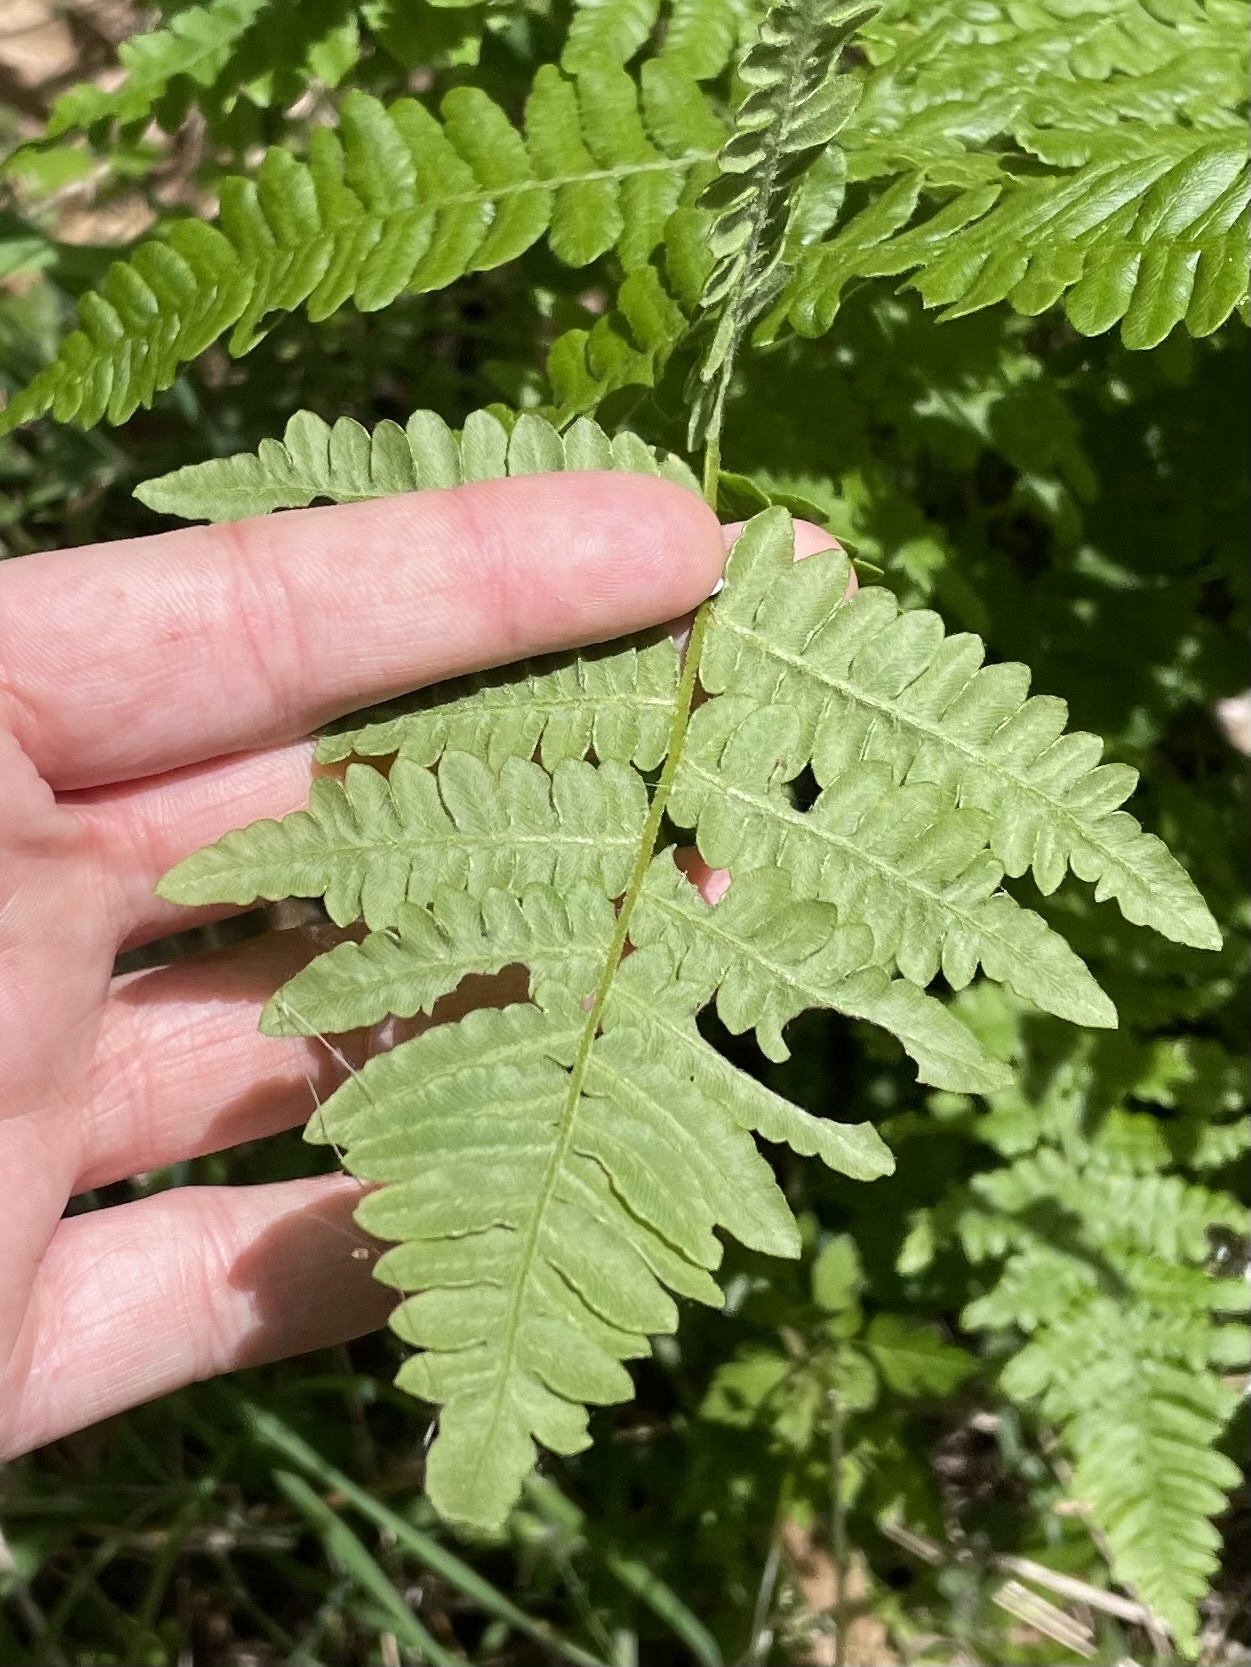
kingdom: Plantae
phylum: Tracheophyta
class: Polypodiopsida
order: Polypodiales
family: Dennstaedtiaceae
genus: Pteridium
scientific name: Pteridium aquilinum
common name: Bracken
